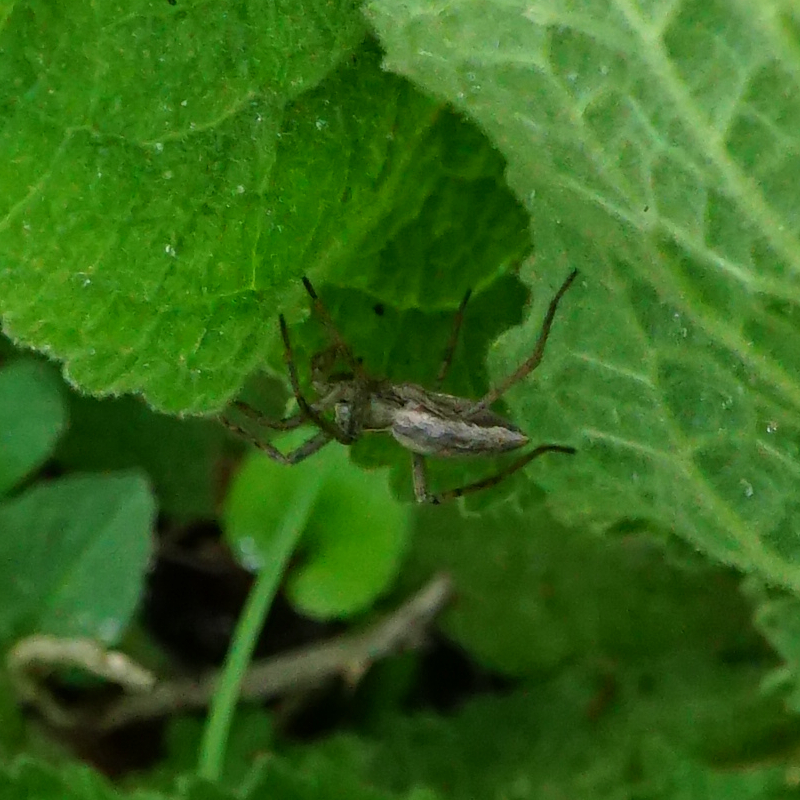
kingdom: Animalia
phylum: Arthropoda
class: Arachnida
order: Araneae
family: Pisauridae
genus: Pisaura
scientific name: Pisaura mirabilis
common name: Tent spider
